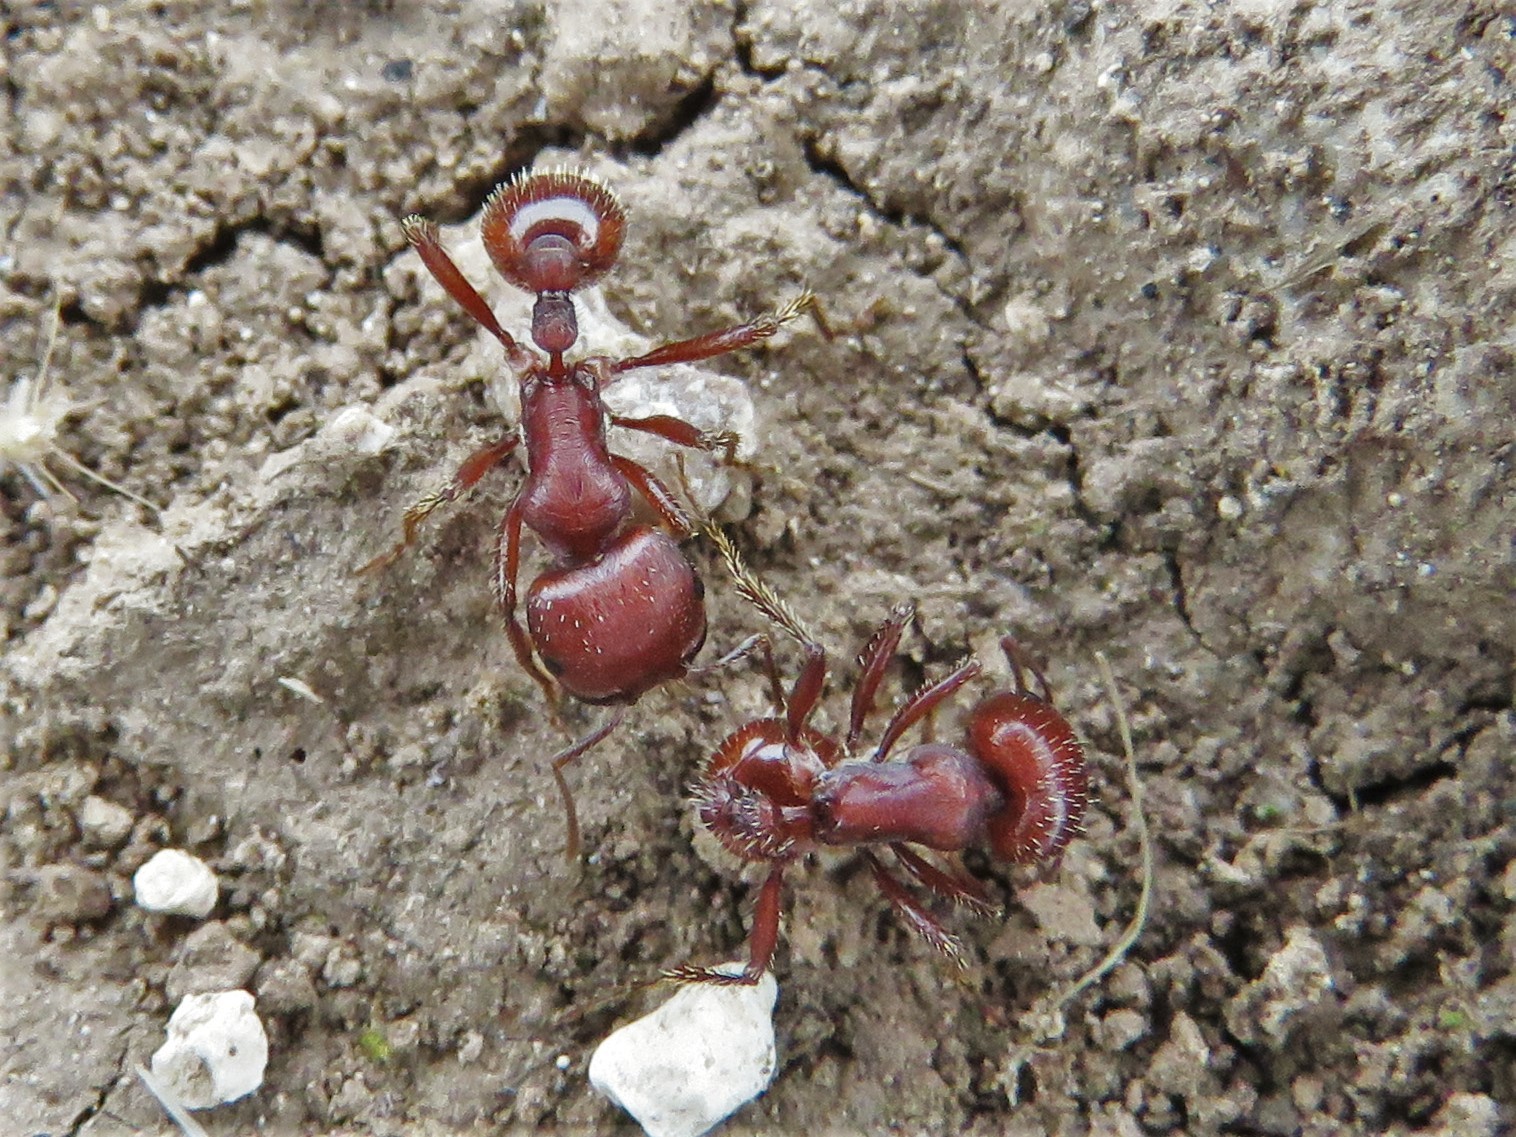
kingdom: Animalia
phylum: Arthropoda
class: Insecta
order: Hymenoptera
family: Formicidae
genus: Pogonomyrmex
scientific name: Pogonomyrmex barbatus
